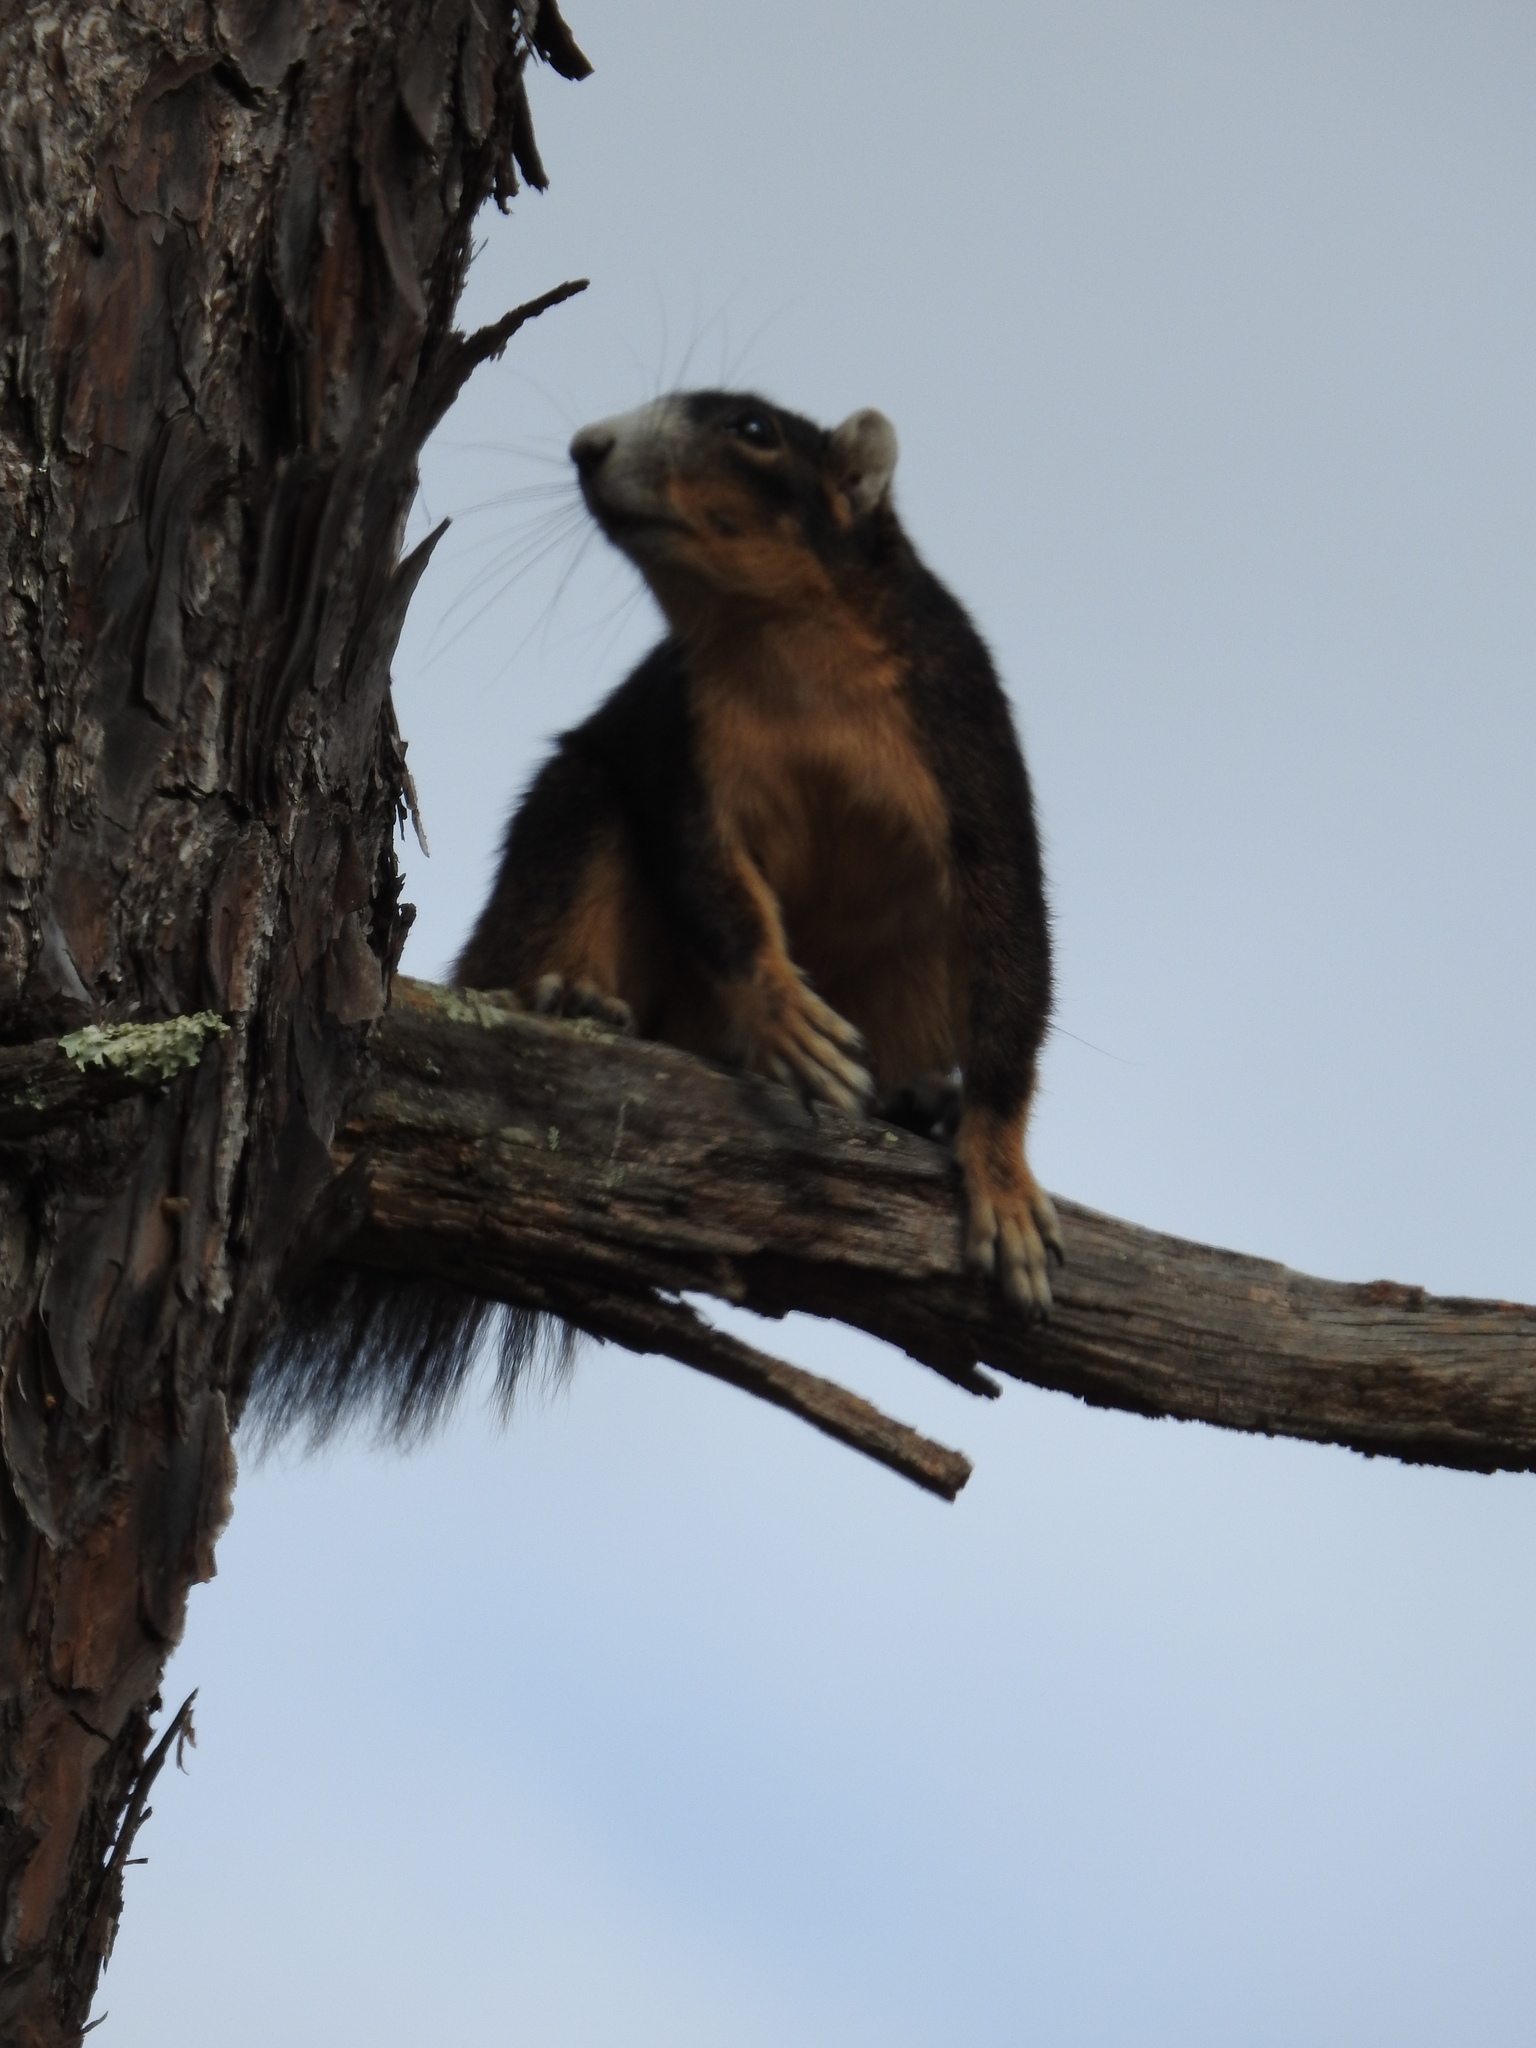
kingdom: Animalia
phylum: Chordata
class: Mammalia
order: Rodentia
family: Sciuridae
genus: Sciurus
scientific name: Sciurus niger
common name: Fox squirrel
